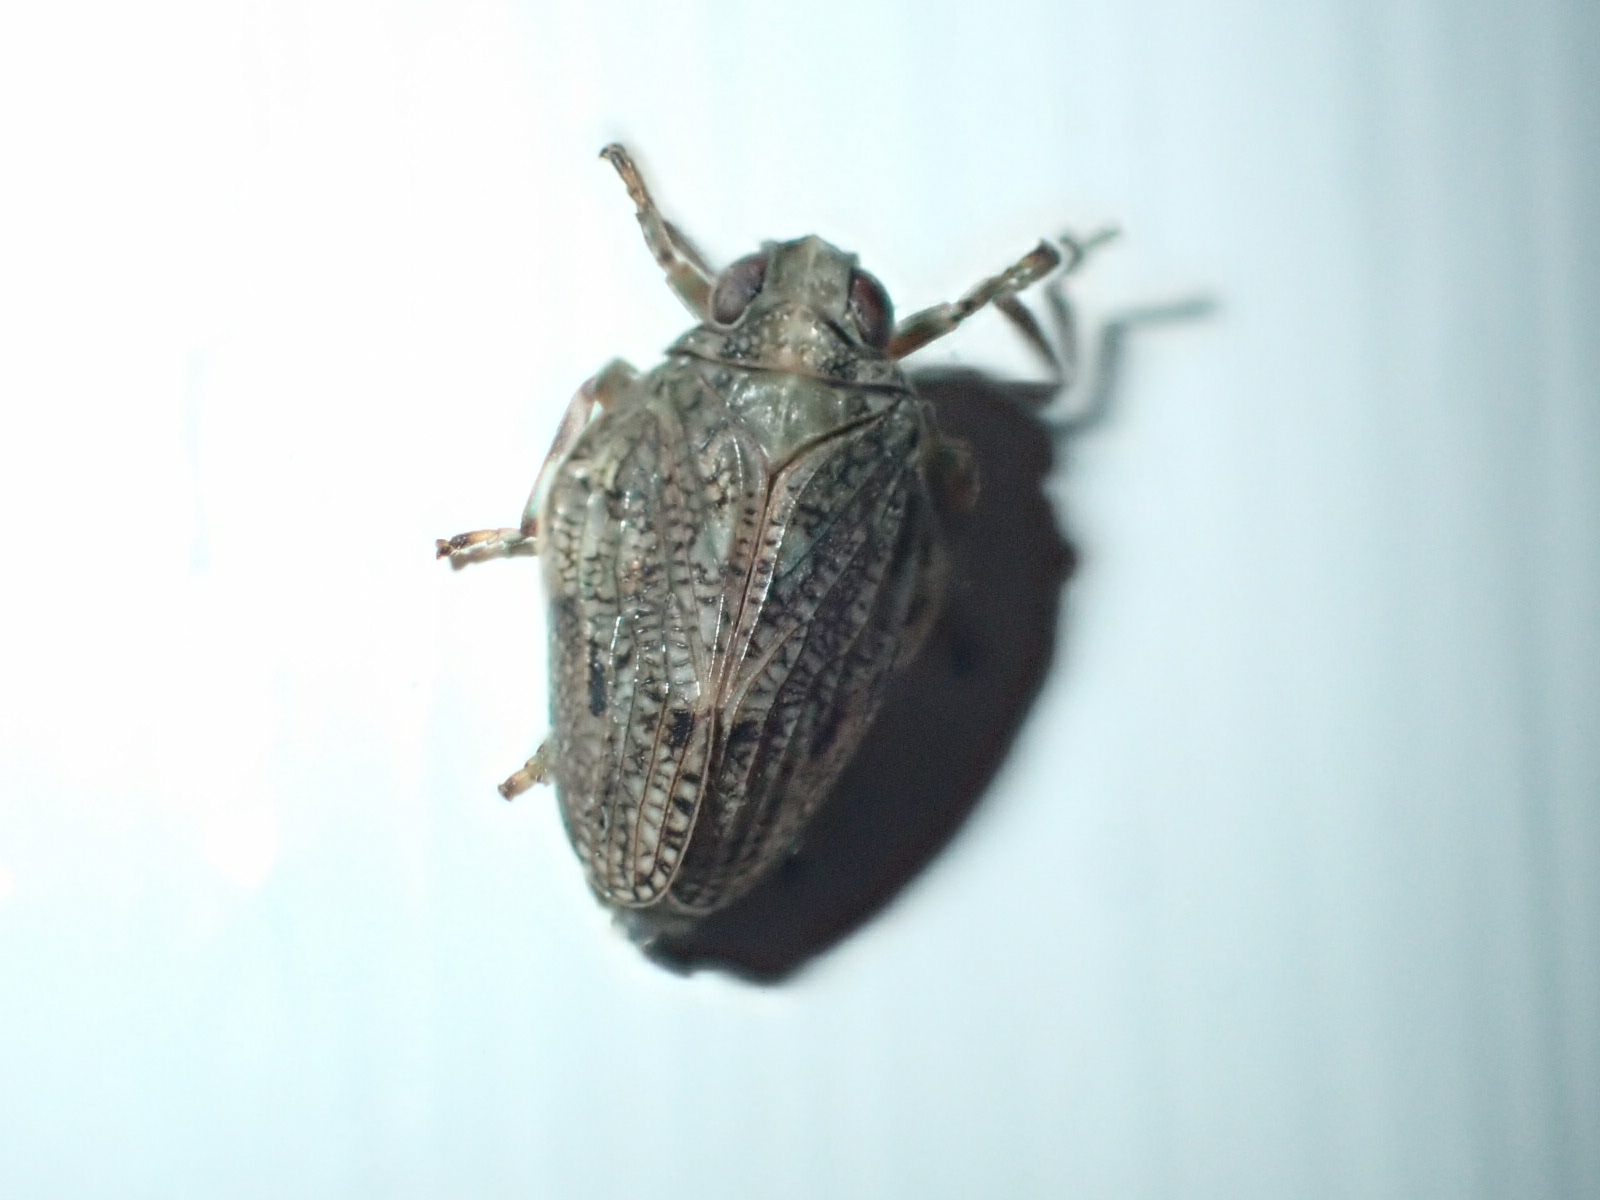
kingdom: Animalia
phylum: Arthropoda
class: Insecta
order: Hemiptera
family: Issidae
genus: Issus
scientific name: Issus coleoptratus
